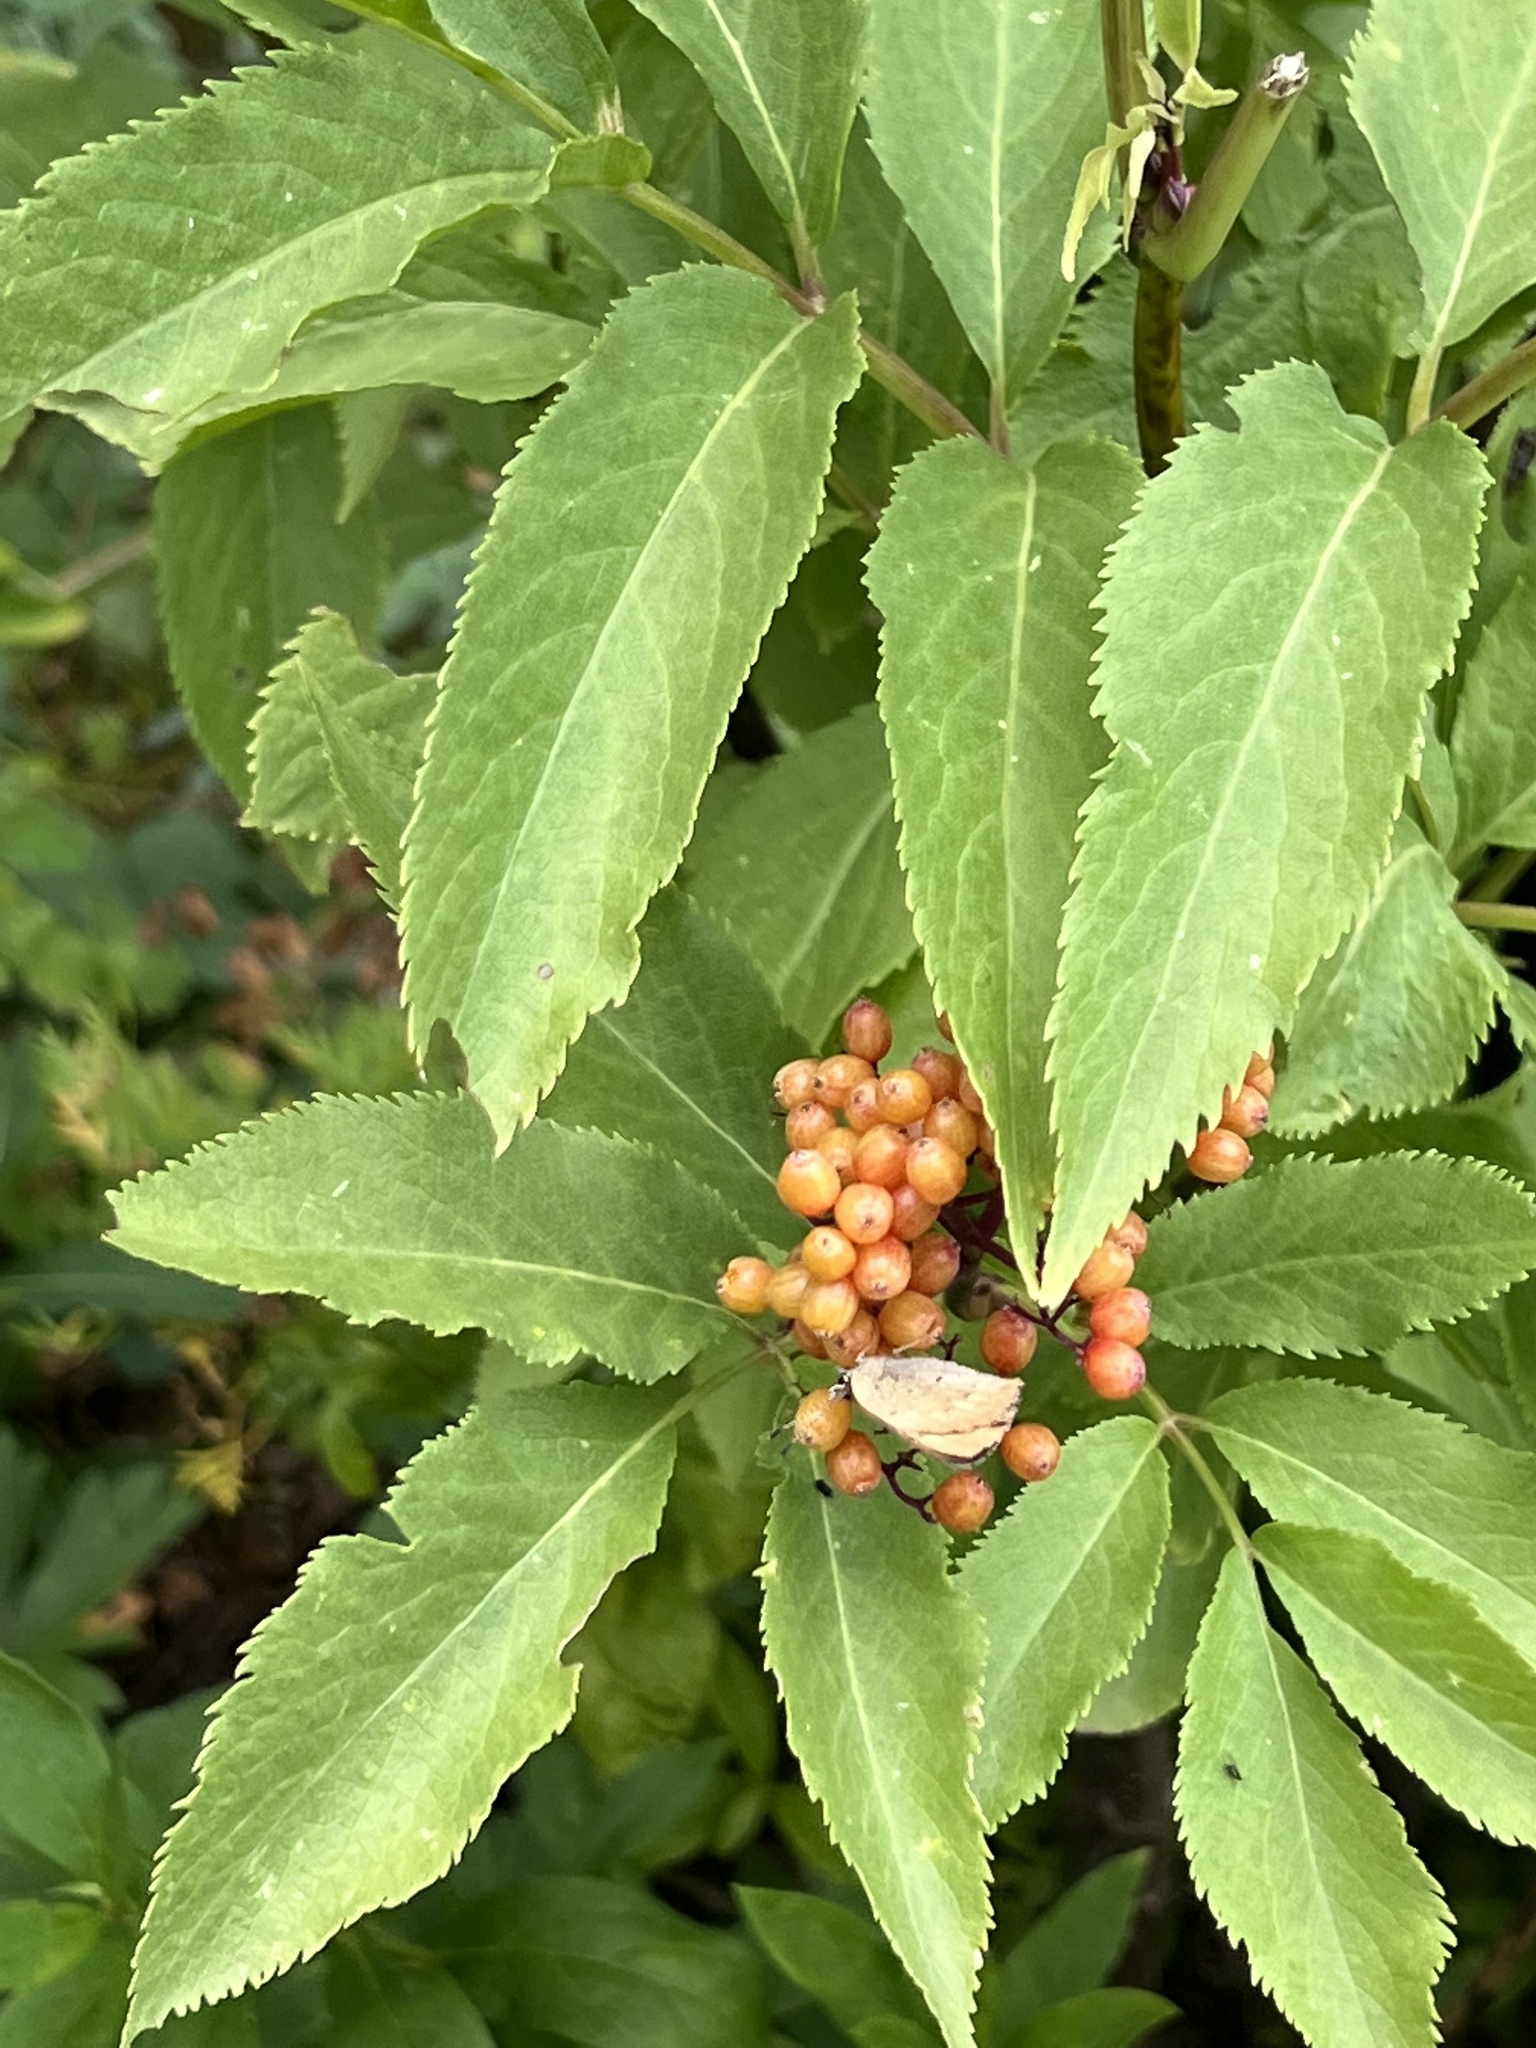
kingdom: Plantae
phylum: Tracheophyta
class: Magnoliopsida
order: Dipsacales
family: Viburnaceae
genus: Sambucus
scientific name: Sambucus racemosa
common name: Red-berried elder
